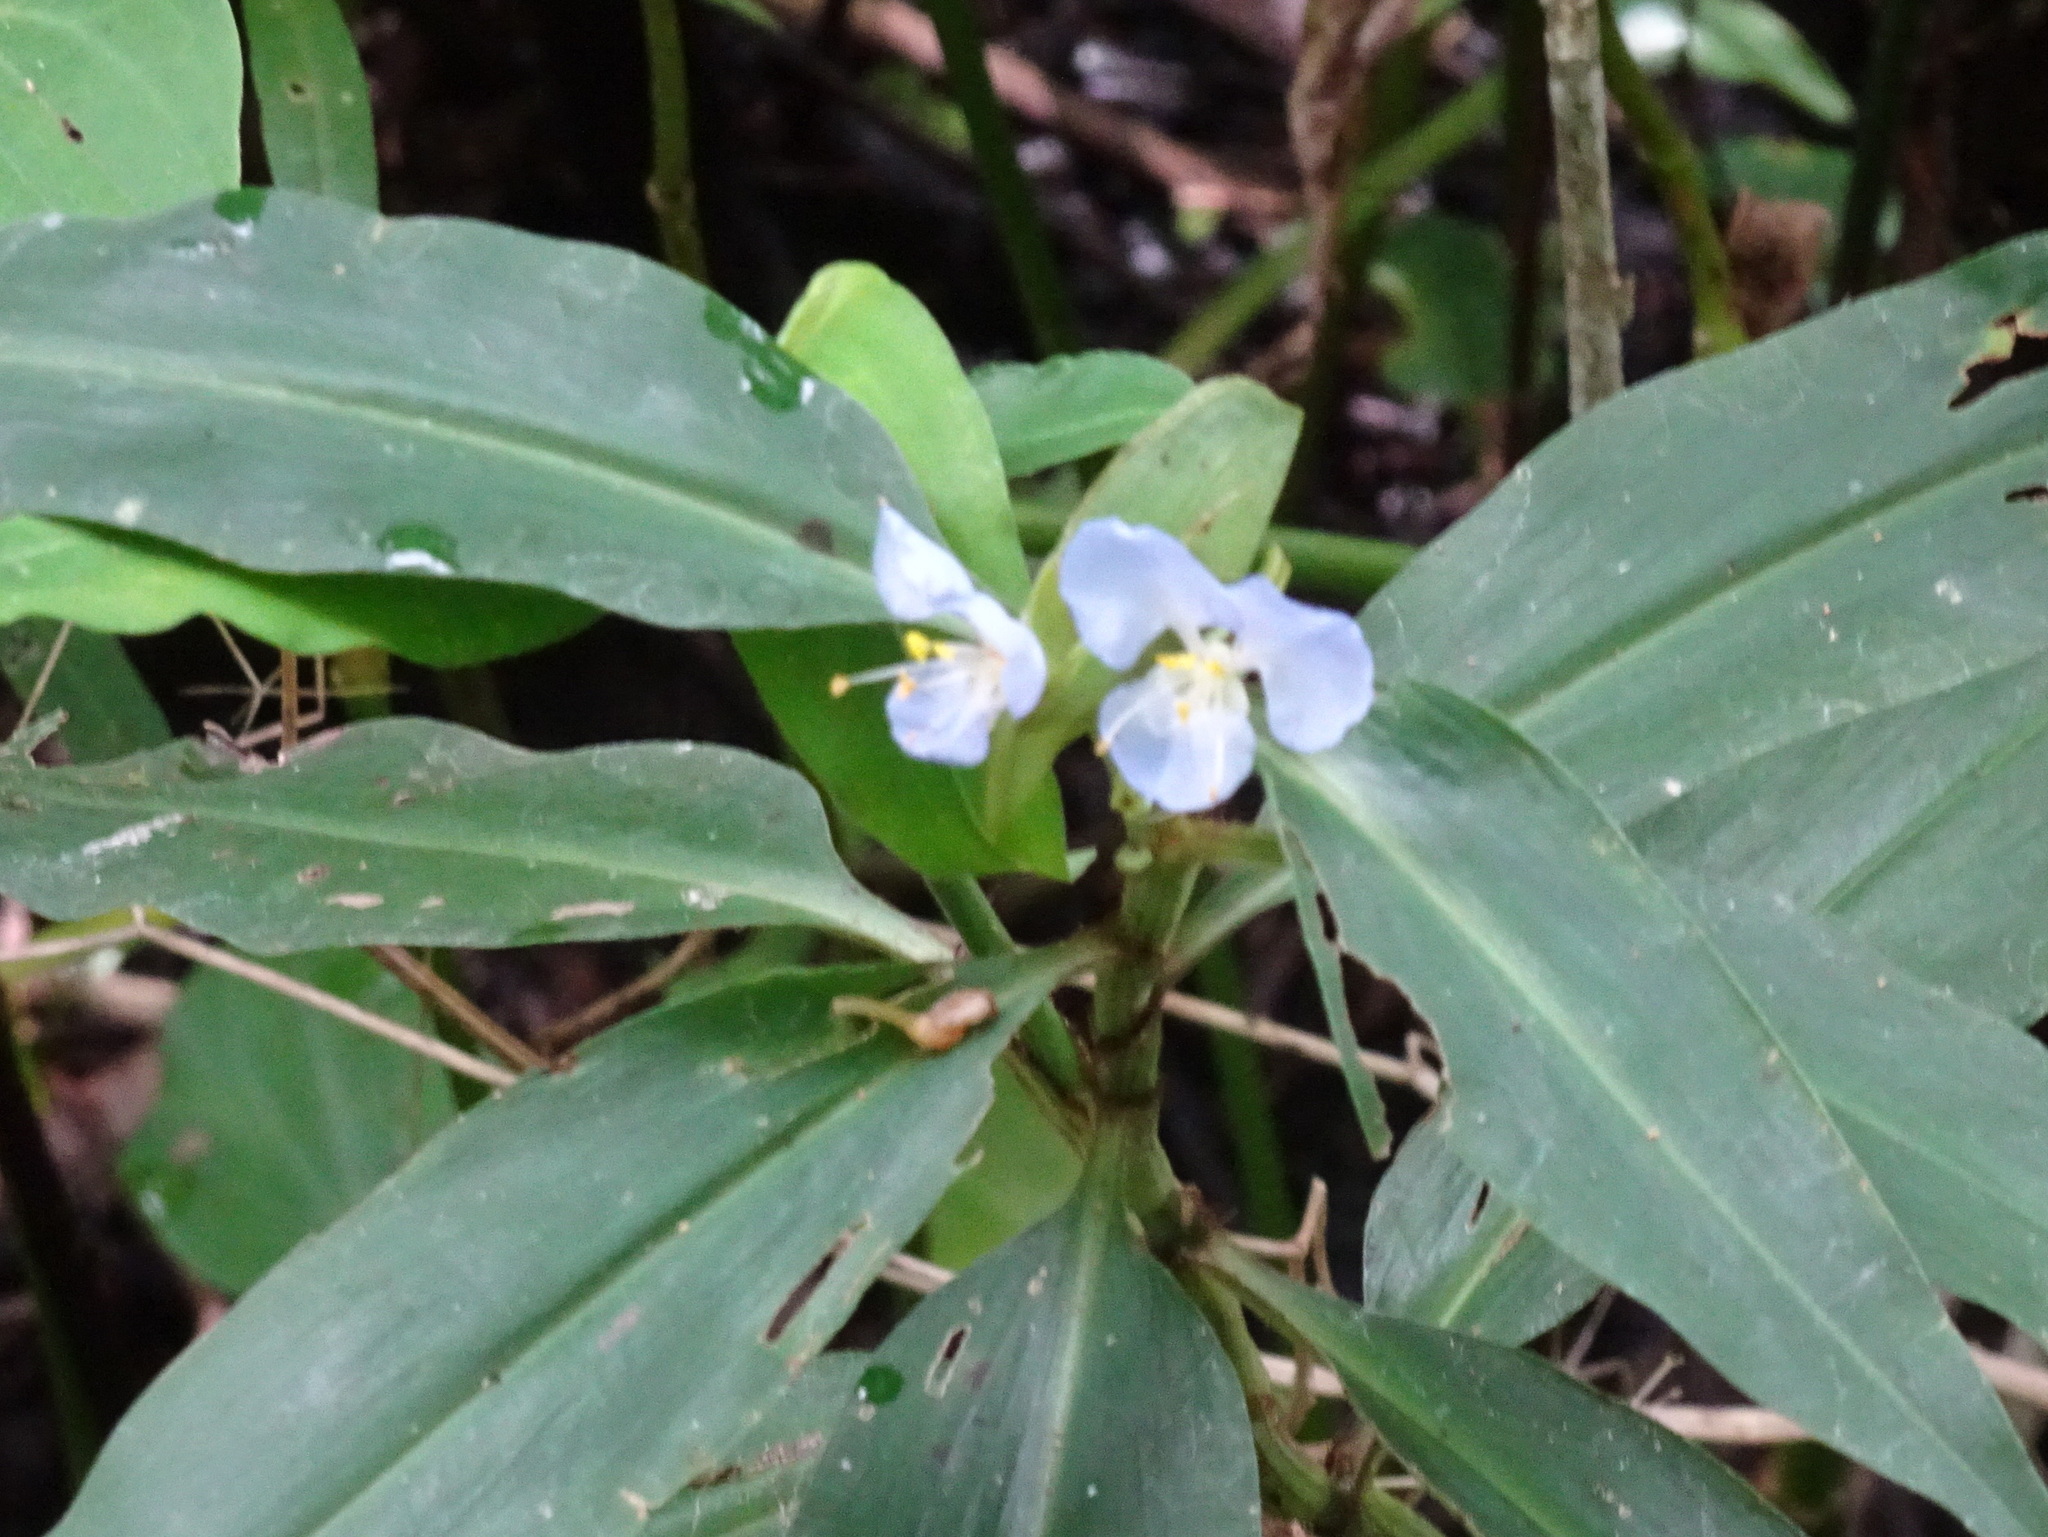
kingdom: Plantae
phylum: Tracheophyta
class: Liliopsida
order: Commelinales
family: Commelinaceae
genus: Commelina
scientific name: Commelina virginica
